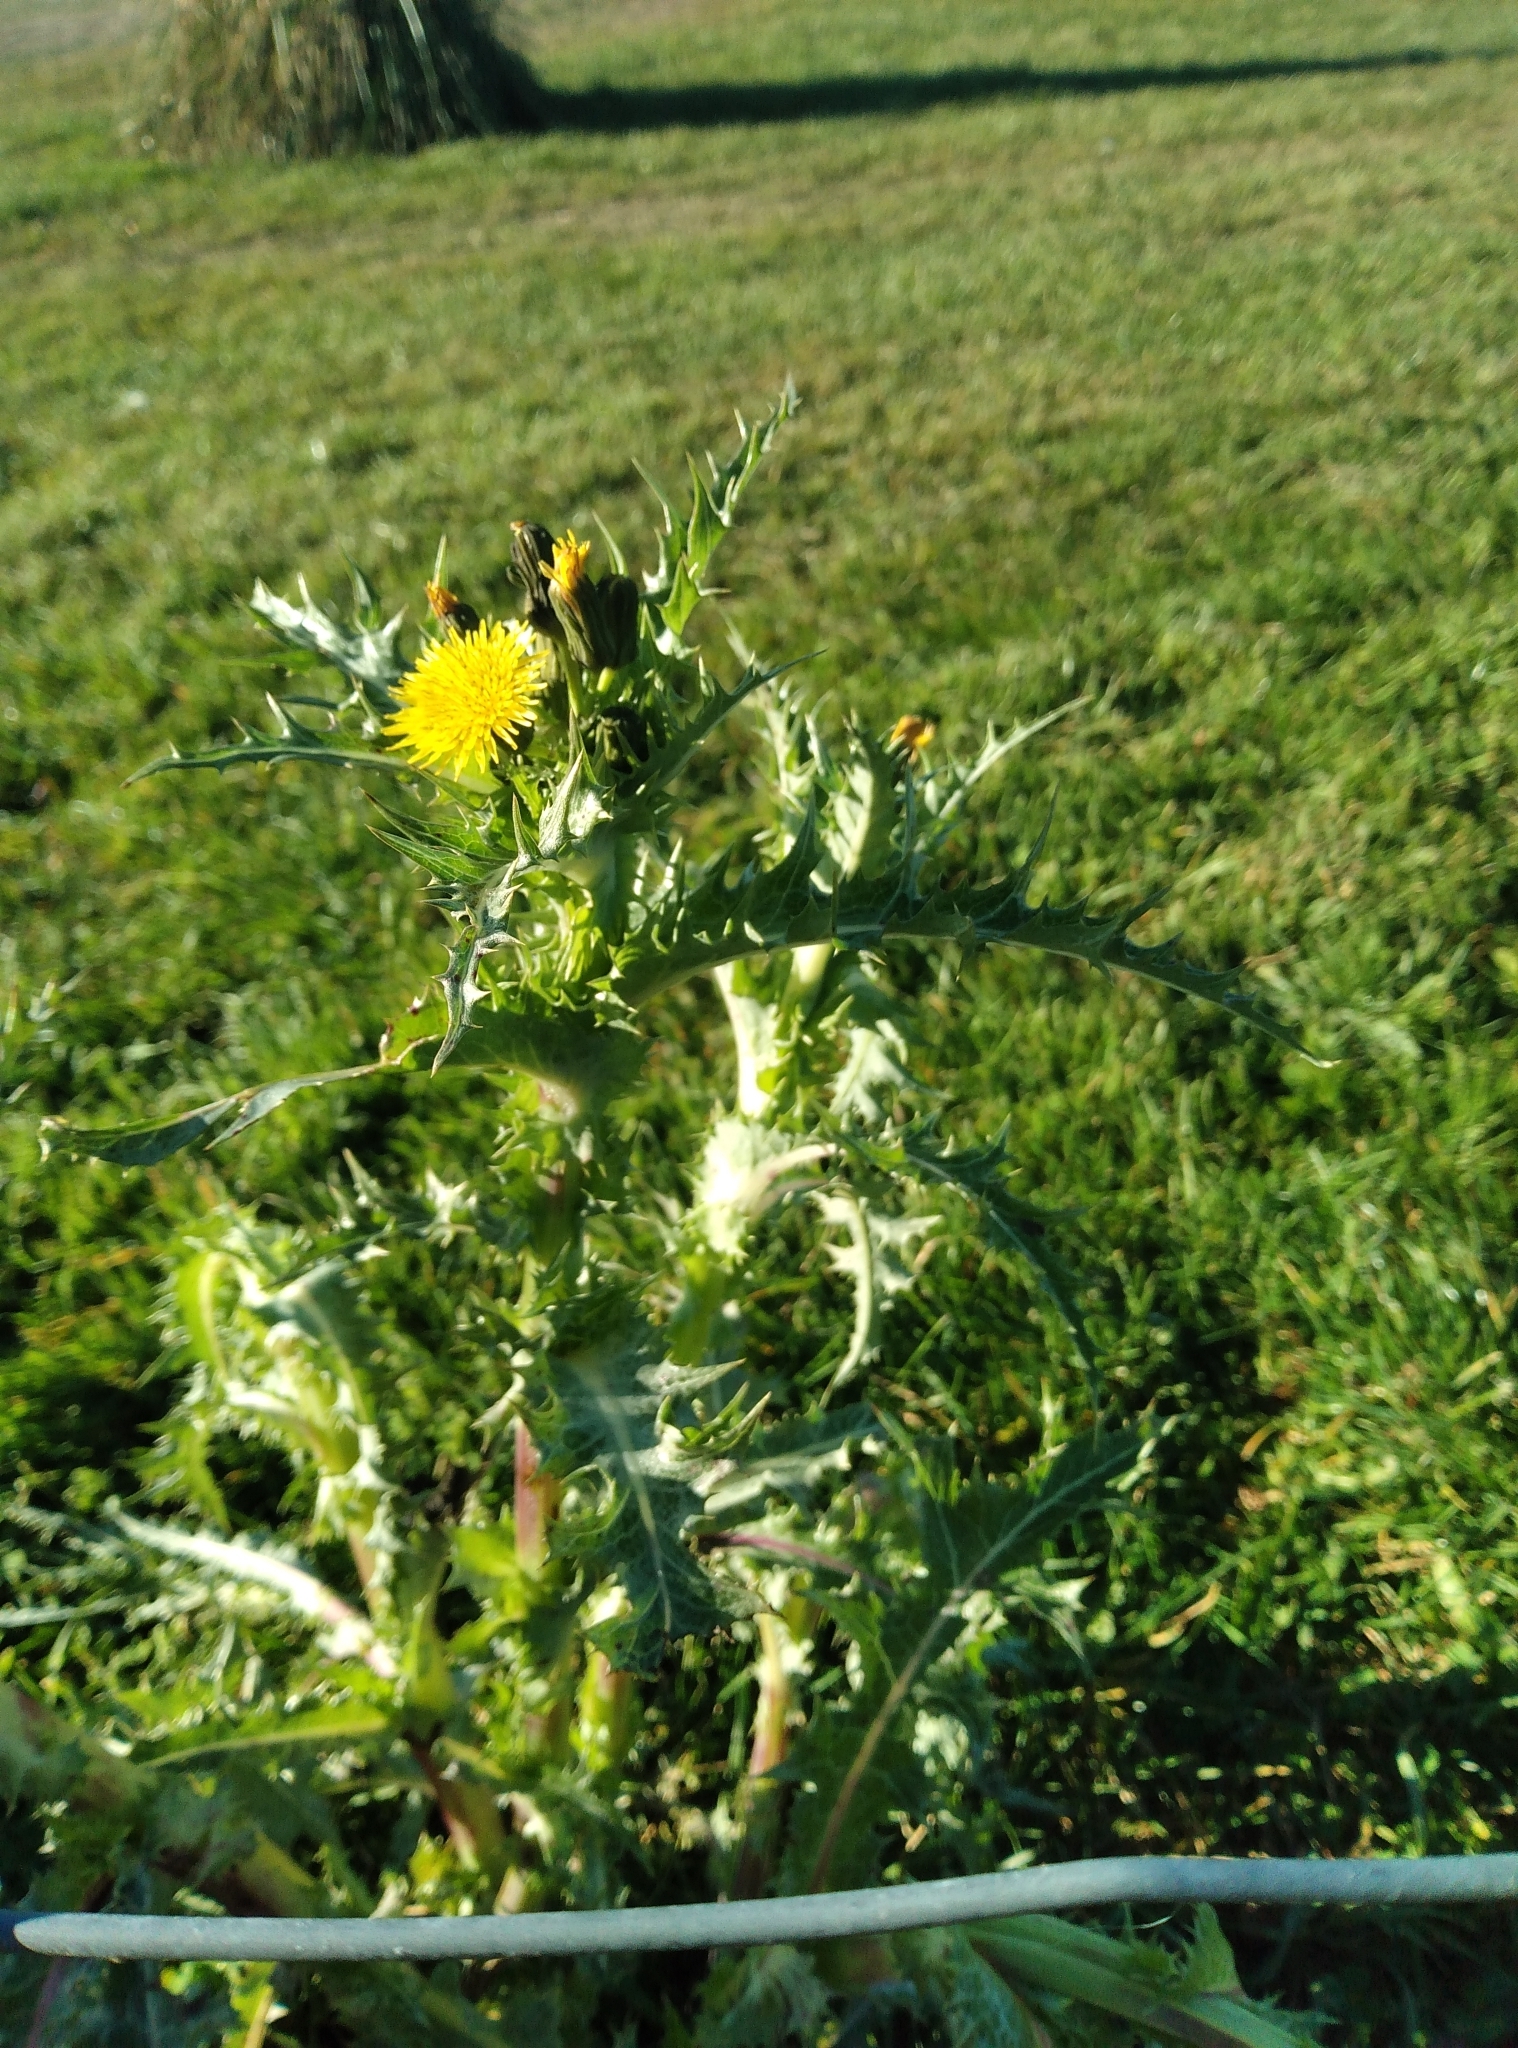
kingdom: Plantae
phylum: Tracheophyta
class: Magnoliopsida
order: Asterales
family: Asteraceae
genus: Sonchus
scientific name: Sonchus asper
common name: Prickly sow-thistle
